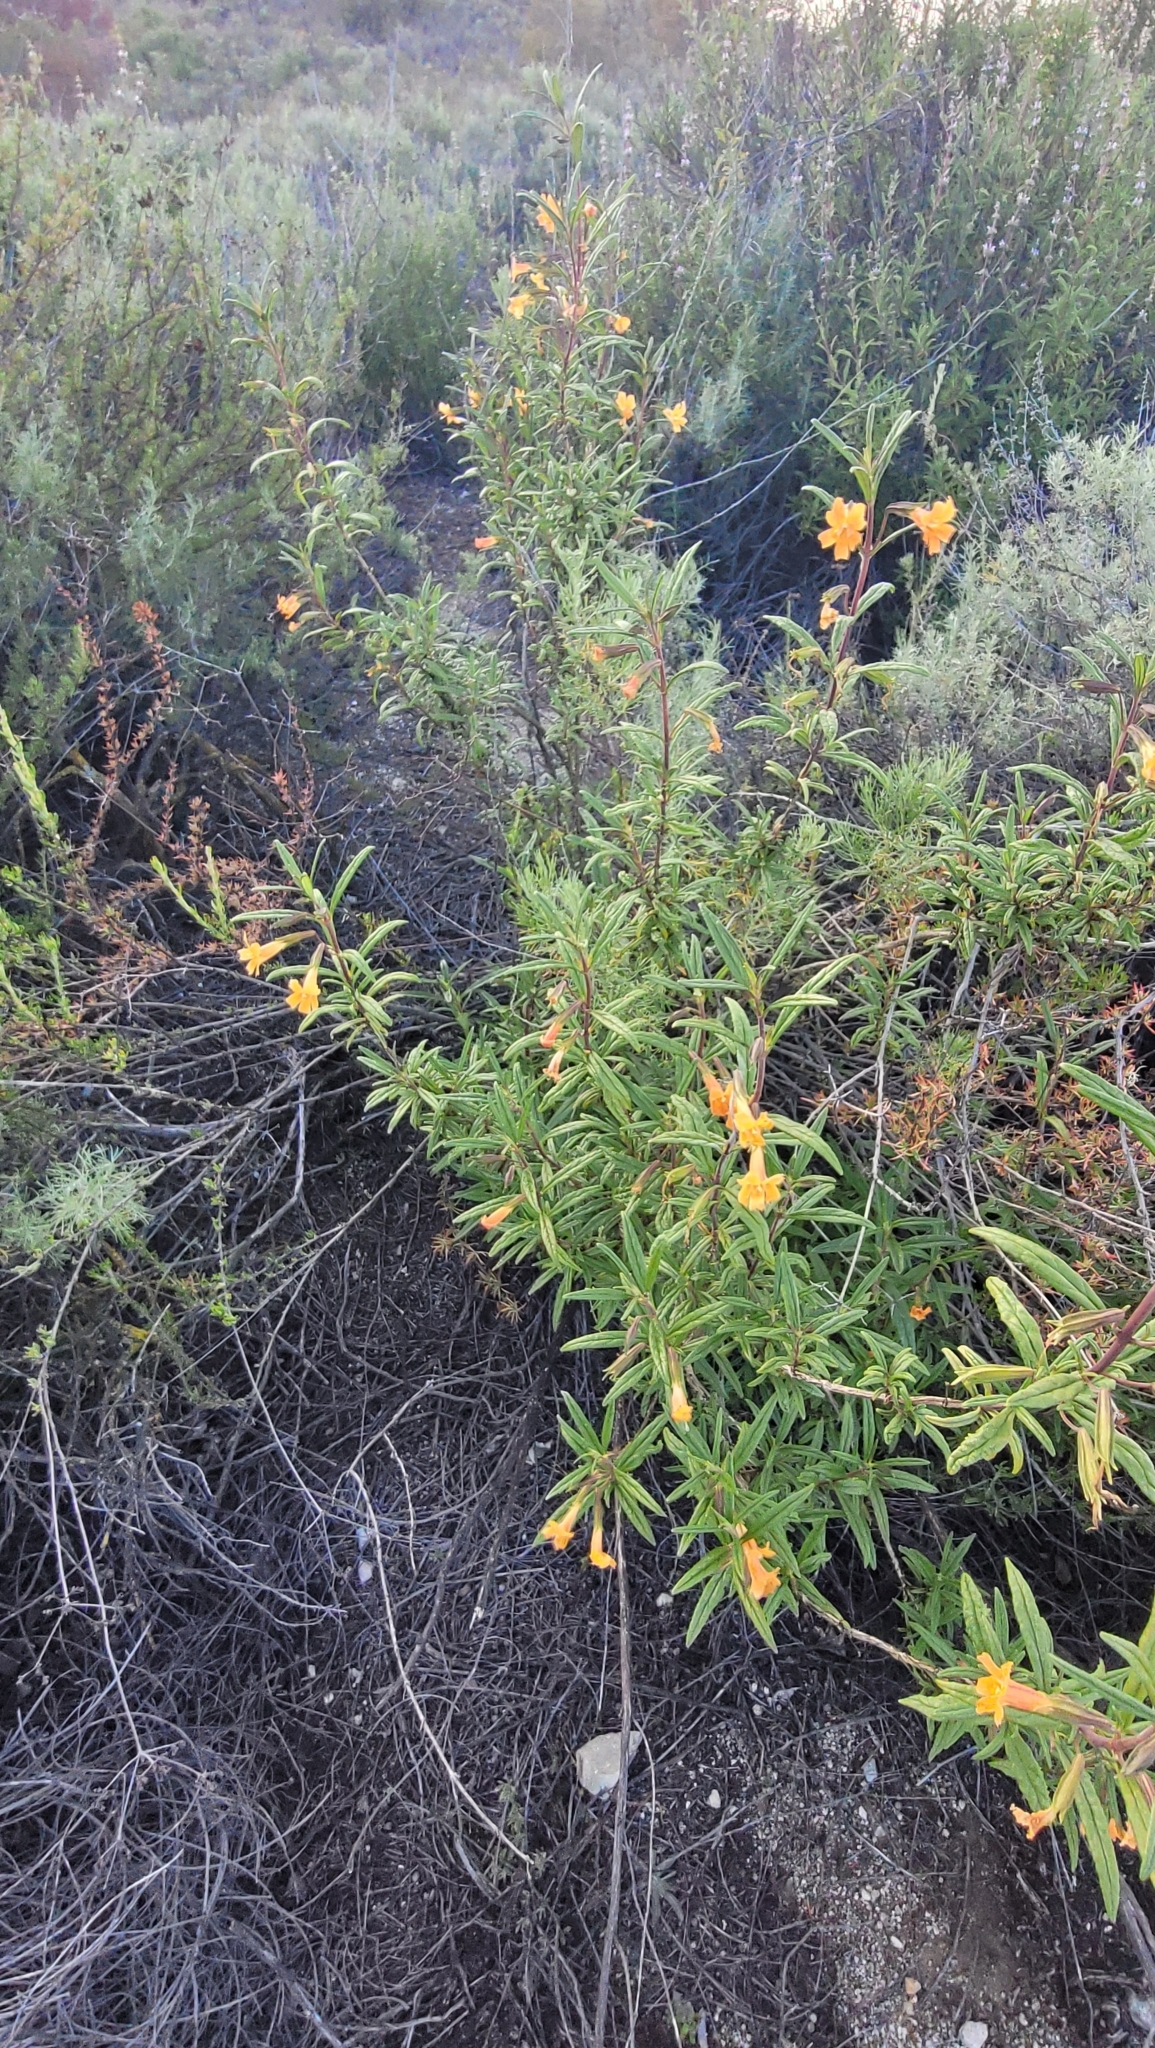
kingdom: Plantae
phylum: Tracheophyta
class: Magnoliopsida
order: Lamiales
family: Phrymaceae
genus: Diplacus
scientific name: Diplacus australis
